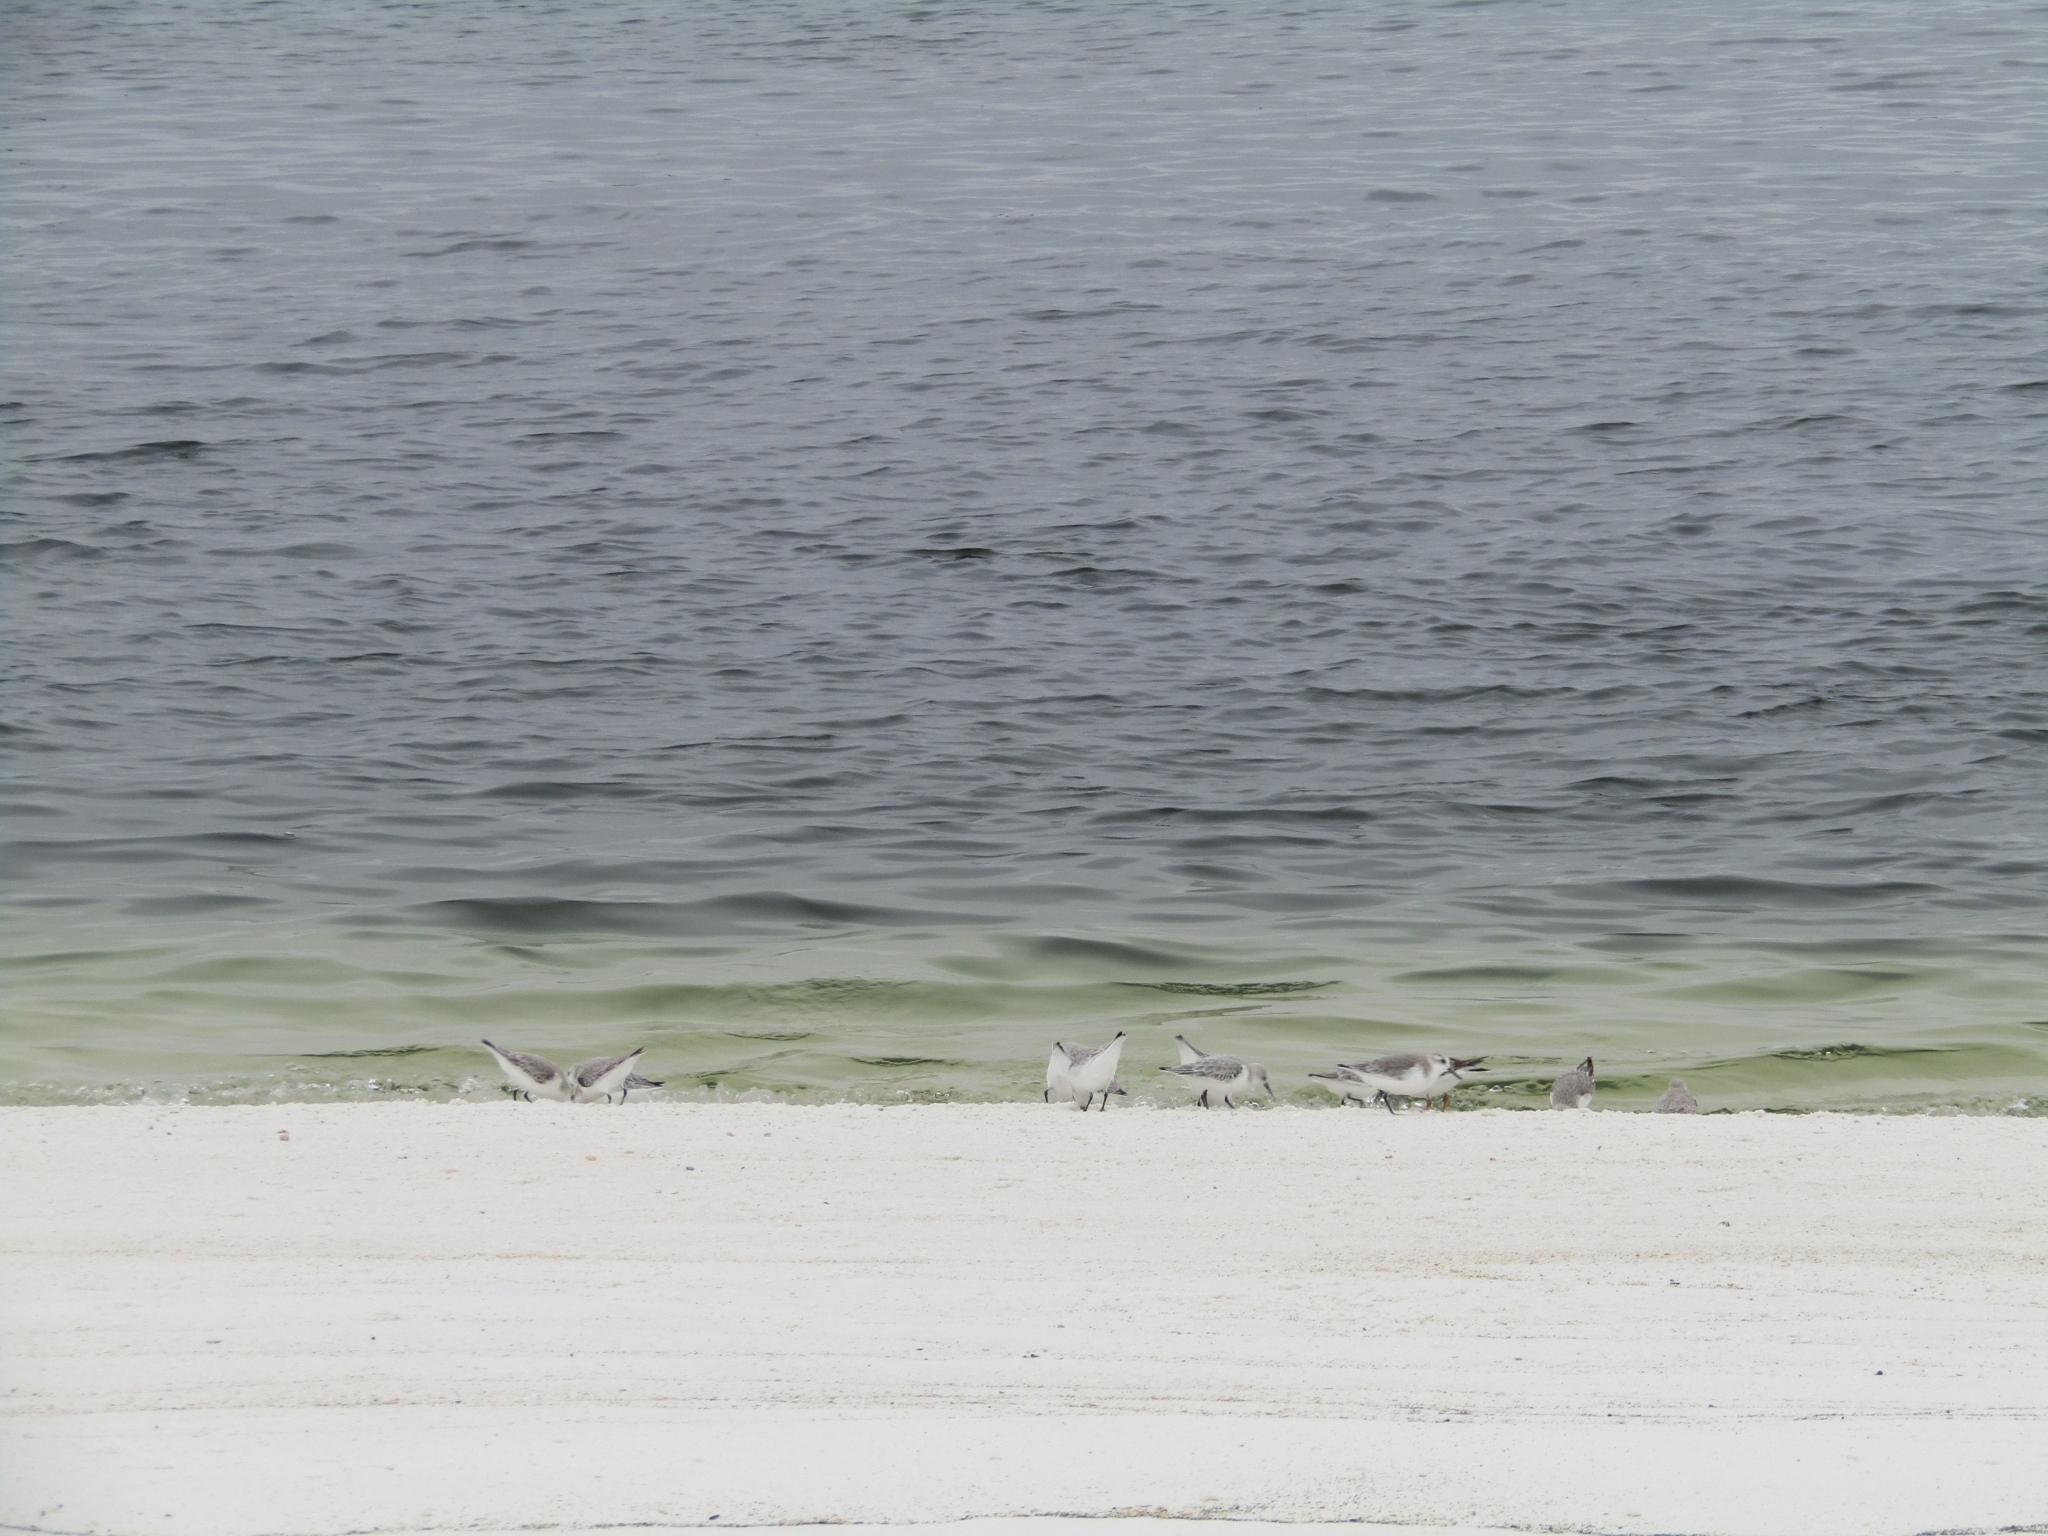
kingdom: Animalia
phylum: Chordata
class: Aves
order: Charadriiformes
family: Scolopacidae
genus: Calidris
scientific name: Calidris alba
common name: Sanderling
